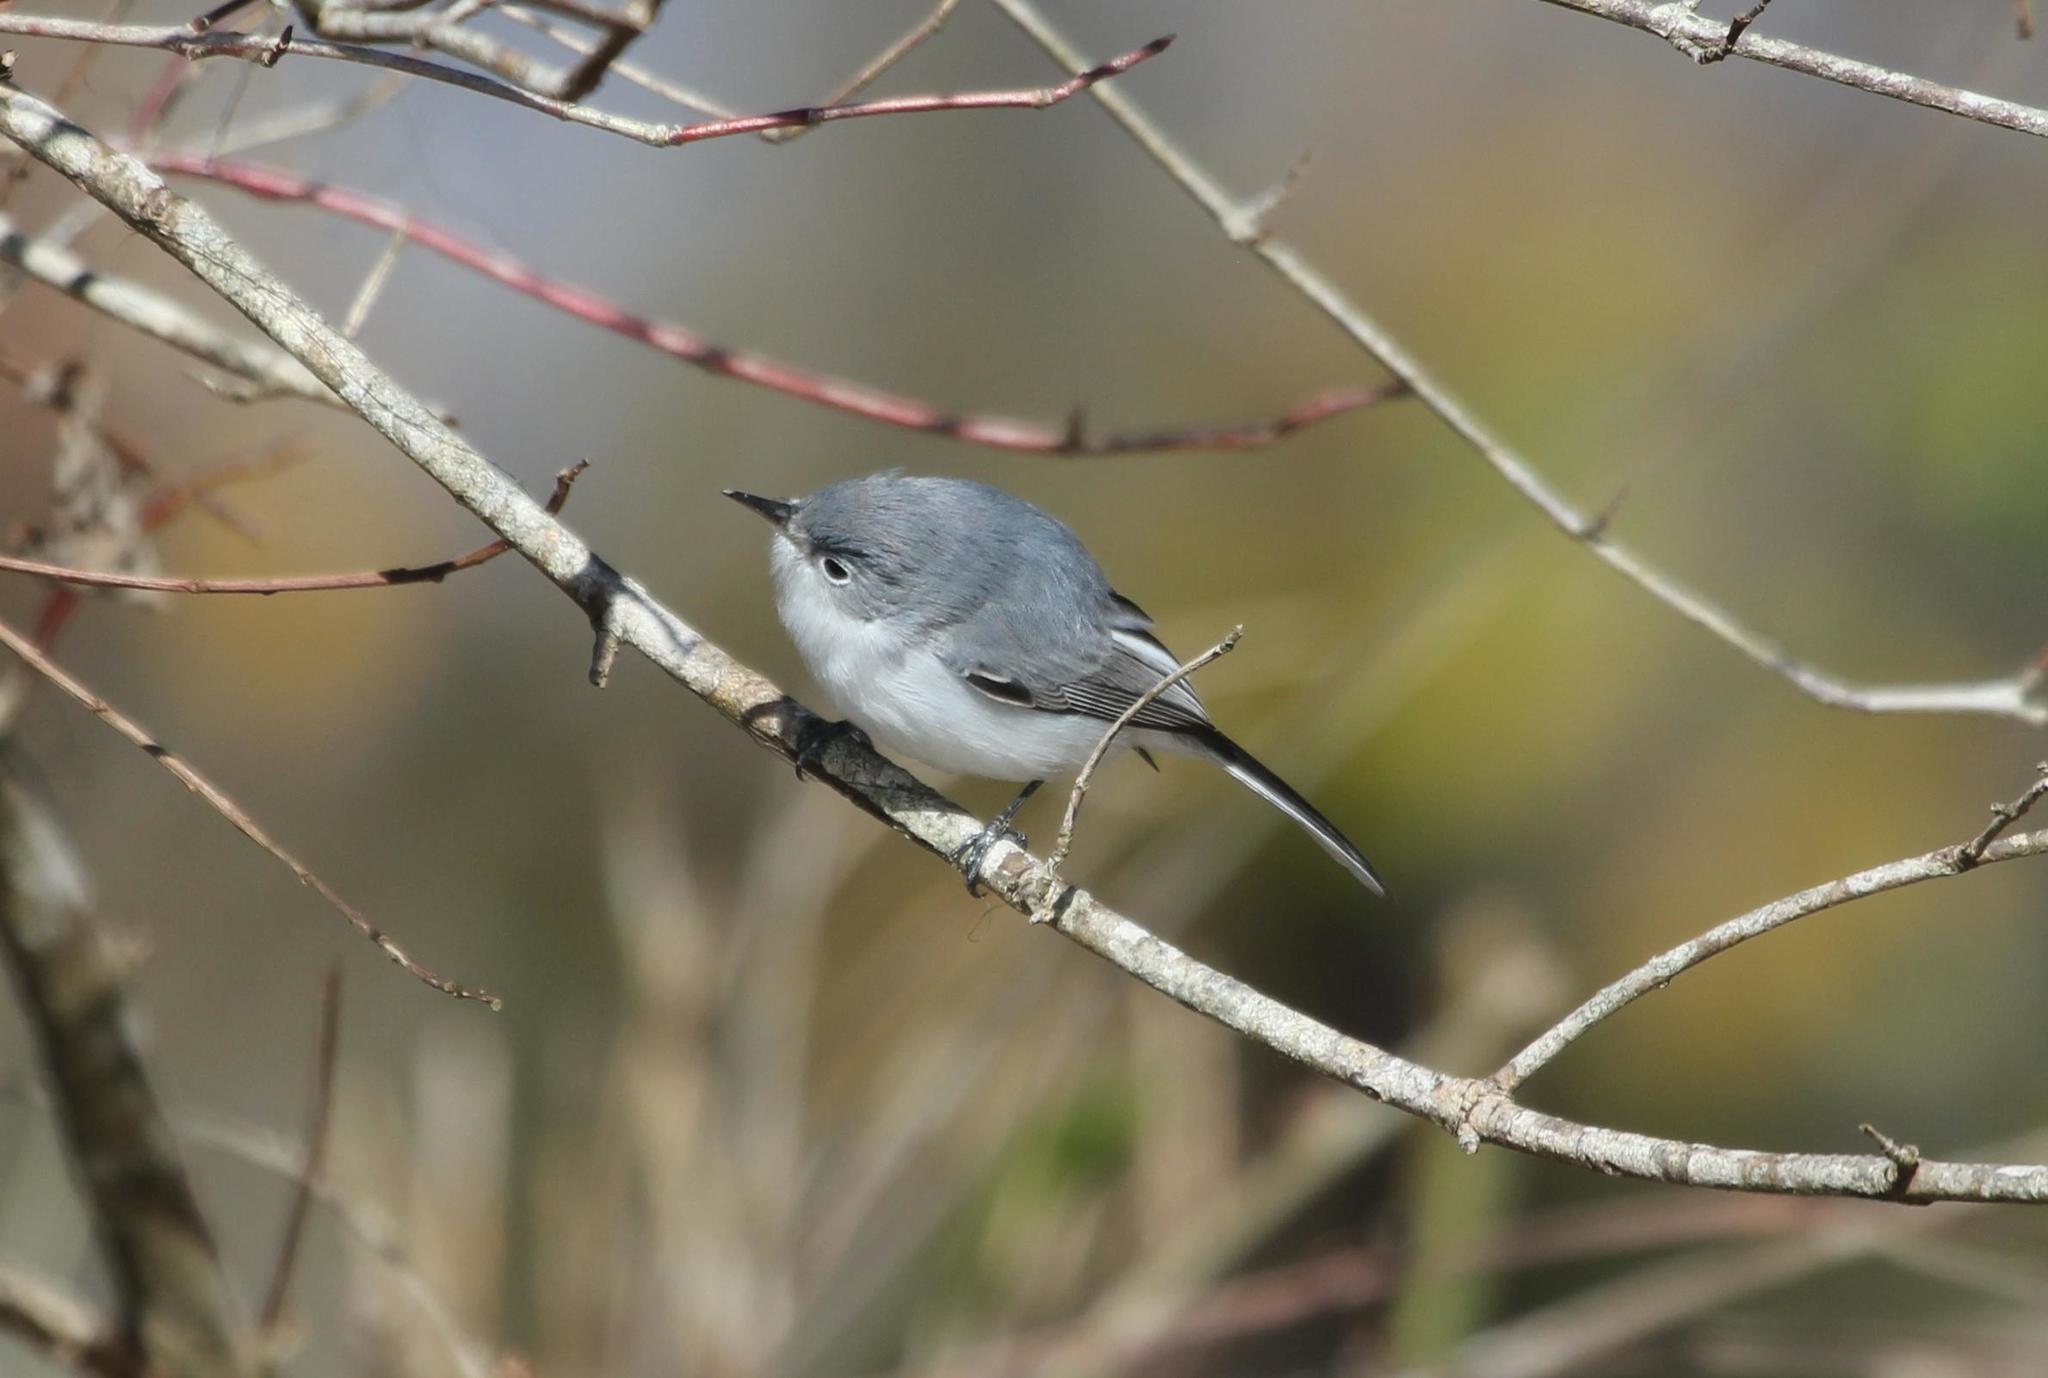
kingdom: Animalia
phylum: Chordata
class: Aves
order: Passeriformes
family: Polioptilidae
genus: Polioptila
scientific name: Polioptila caerulea
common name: Blue-gray gnatcatcher
